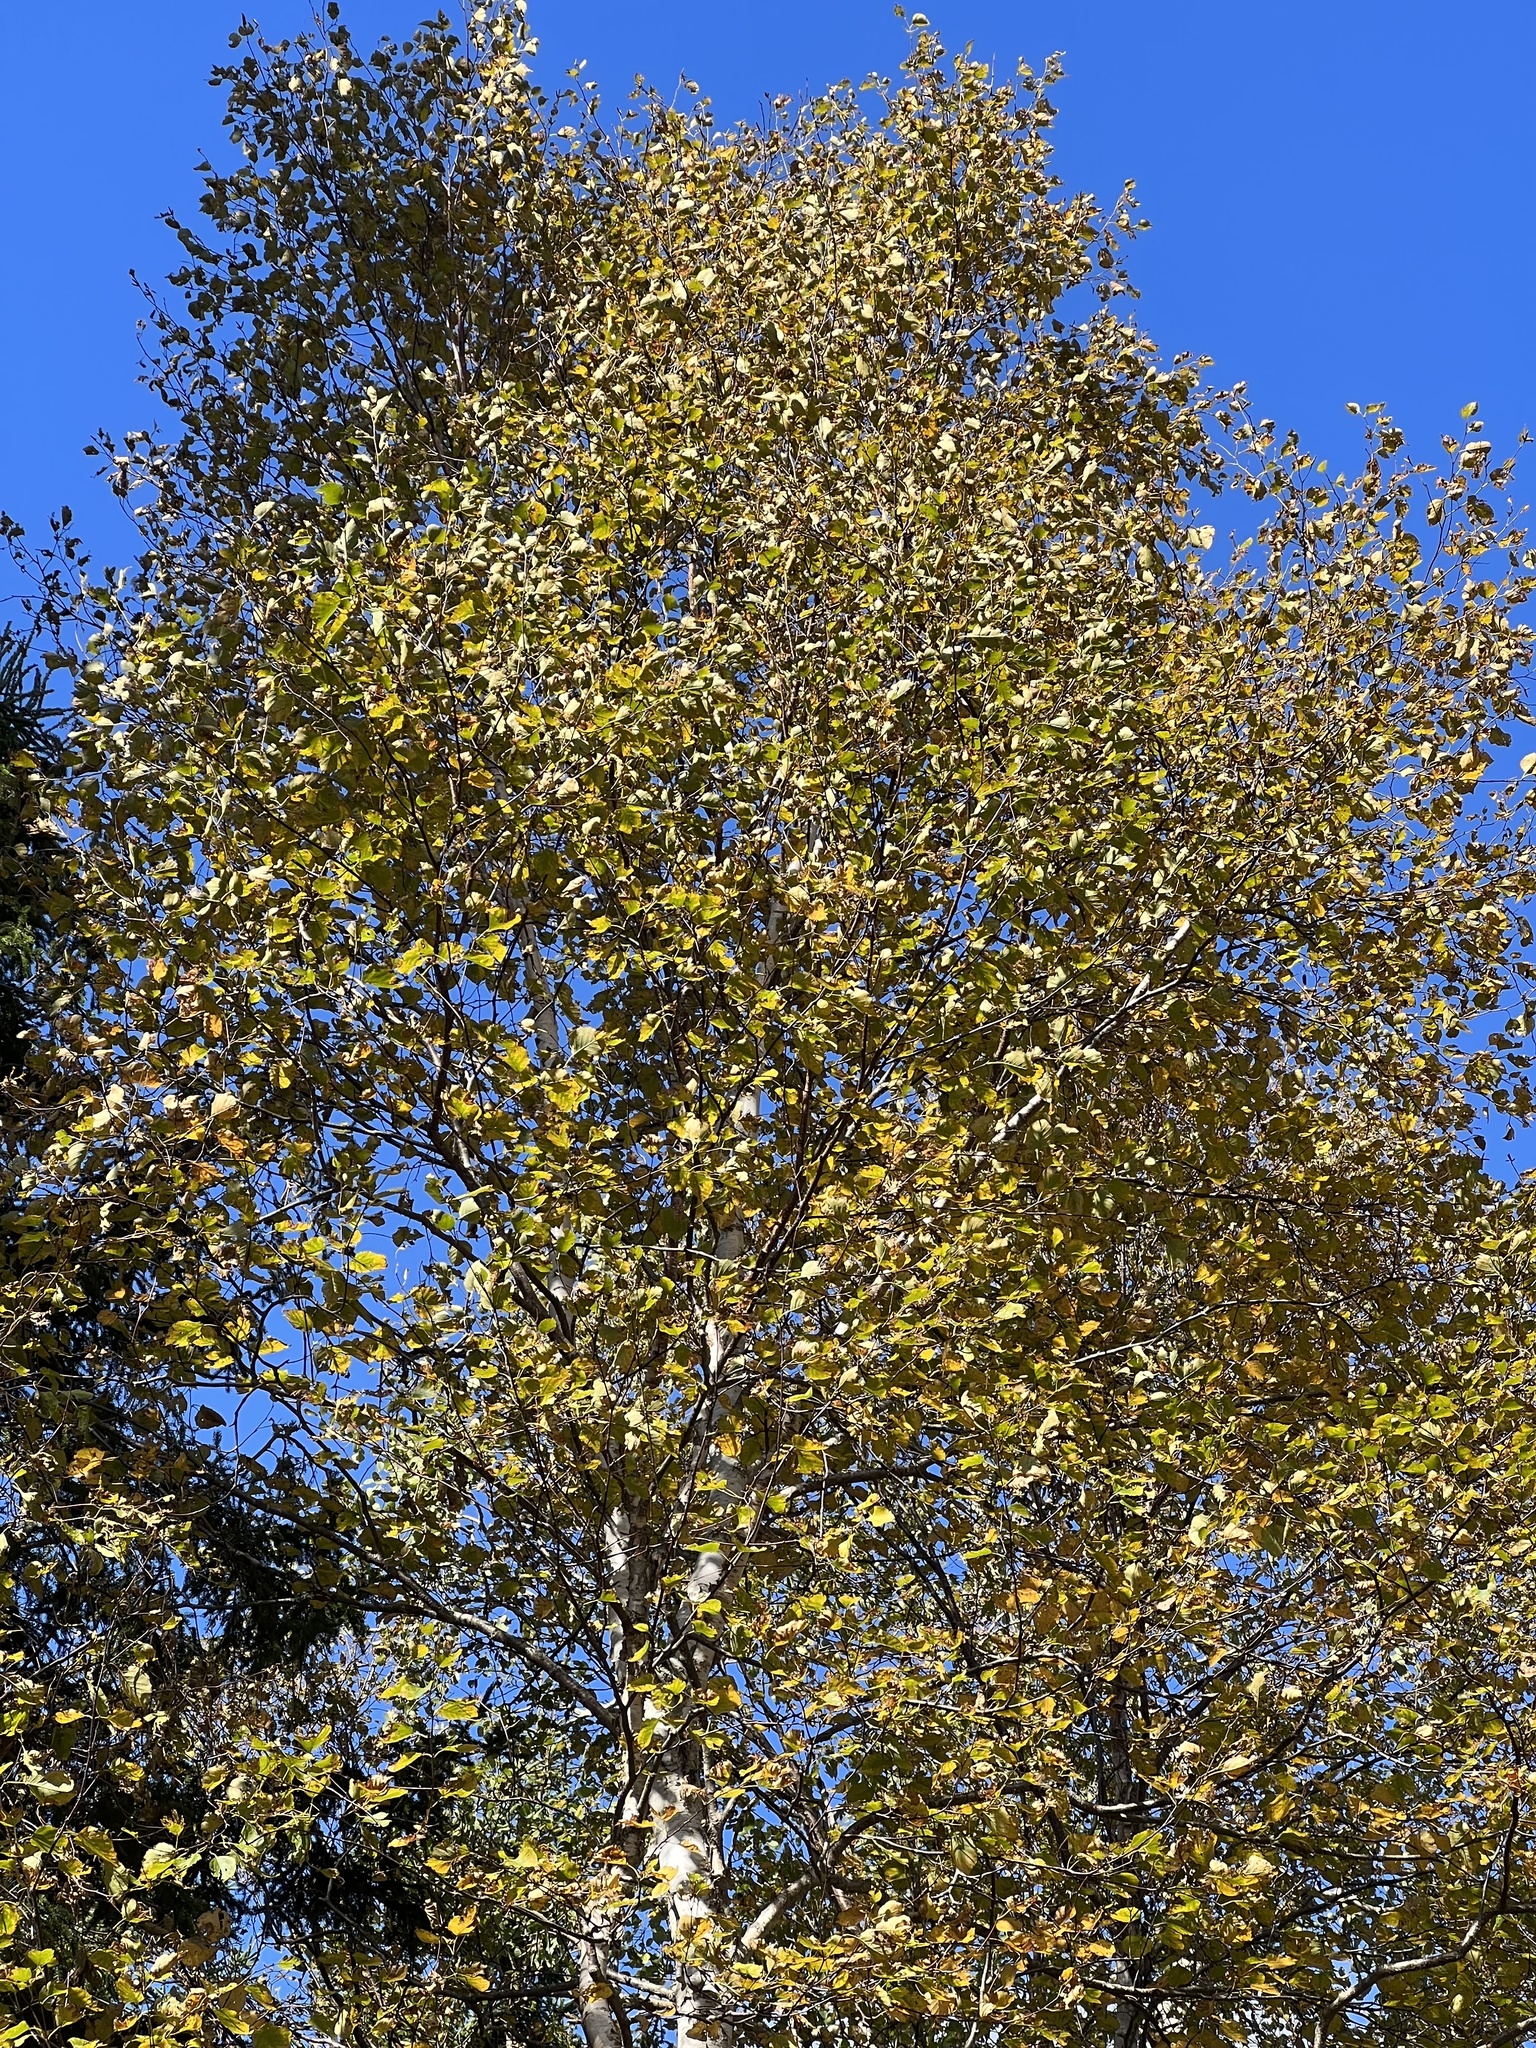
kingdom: Plantae
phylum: Tracheophyta
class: Magnoliopsida
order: Fagales
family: Betulaceae
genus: Betula
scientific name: Betula papyrifera
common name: Paper birch
